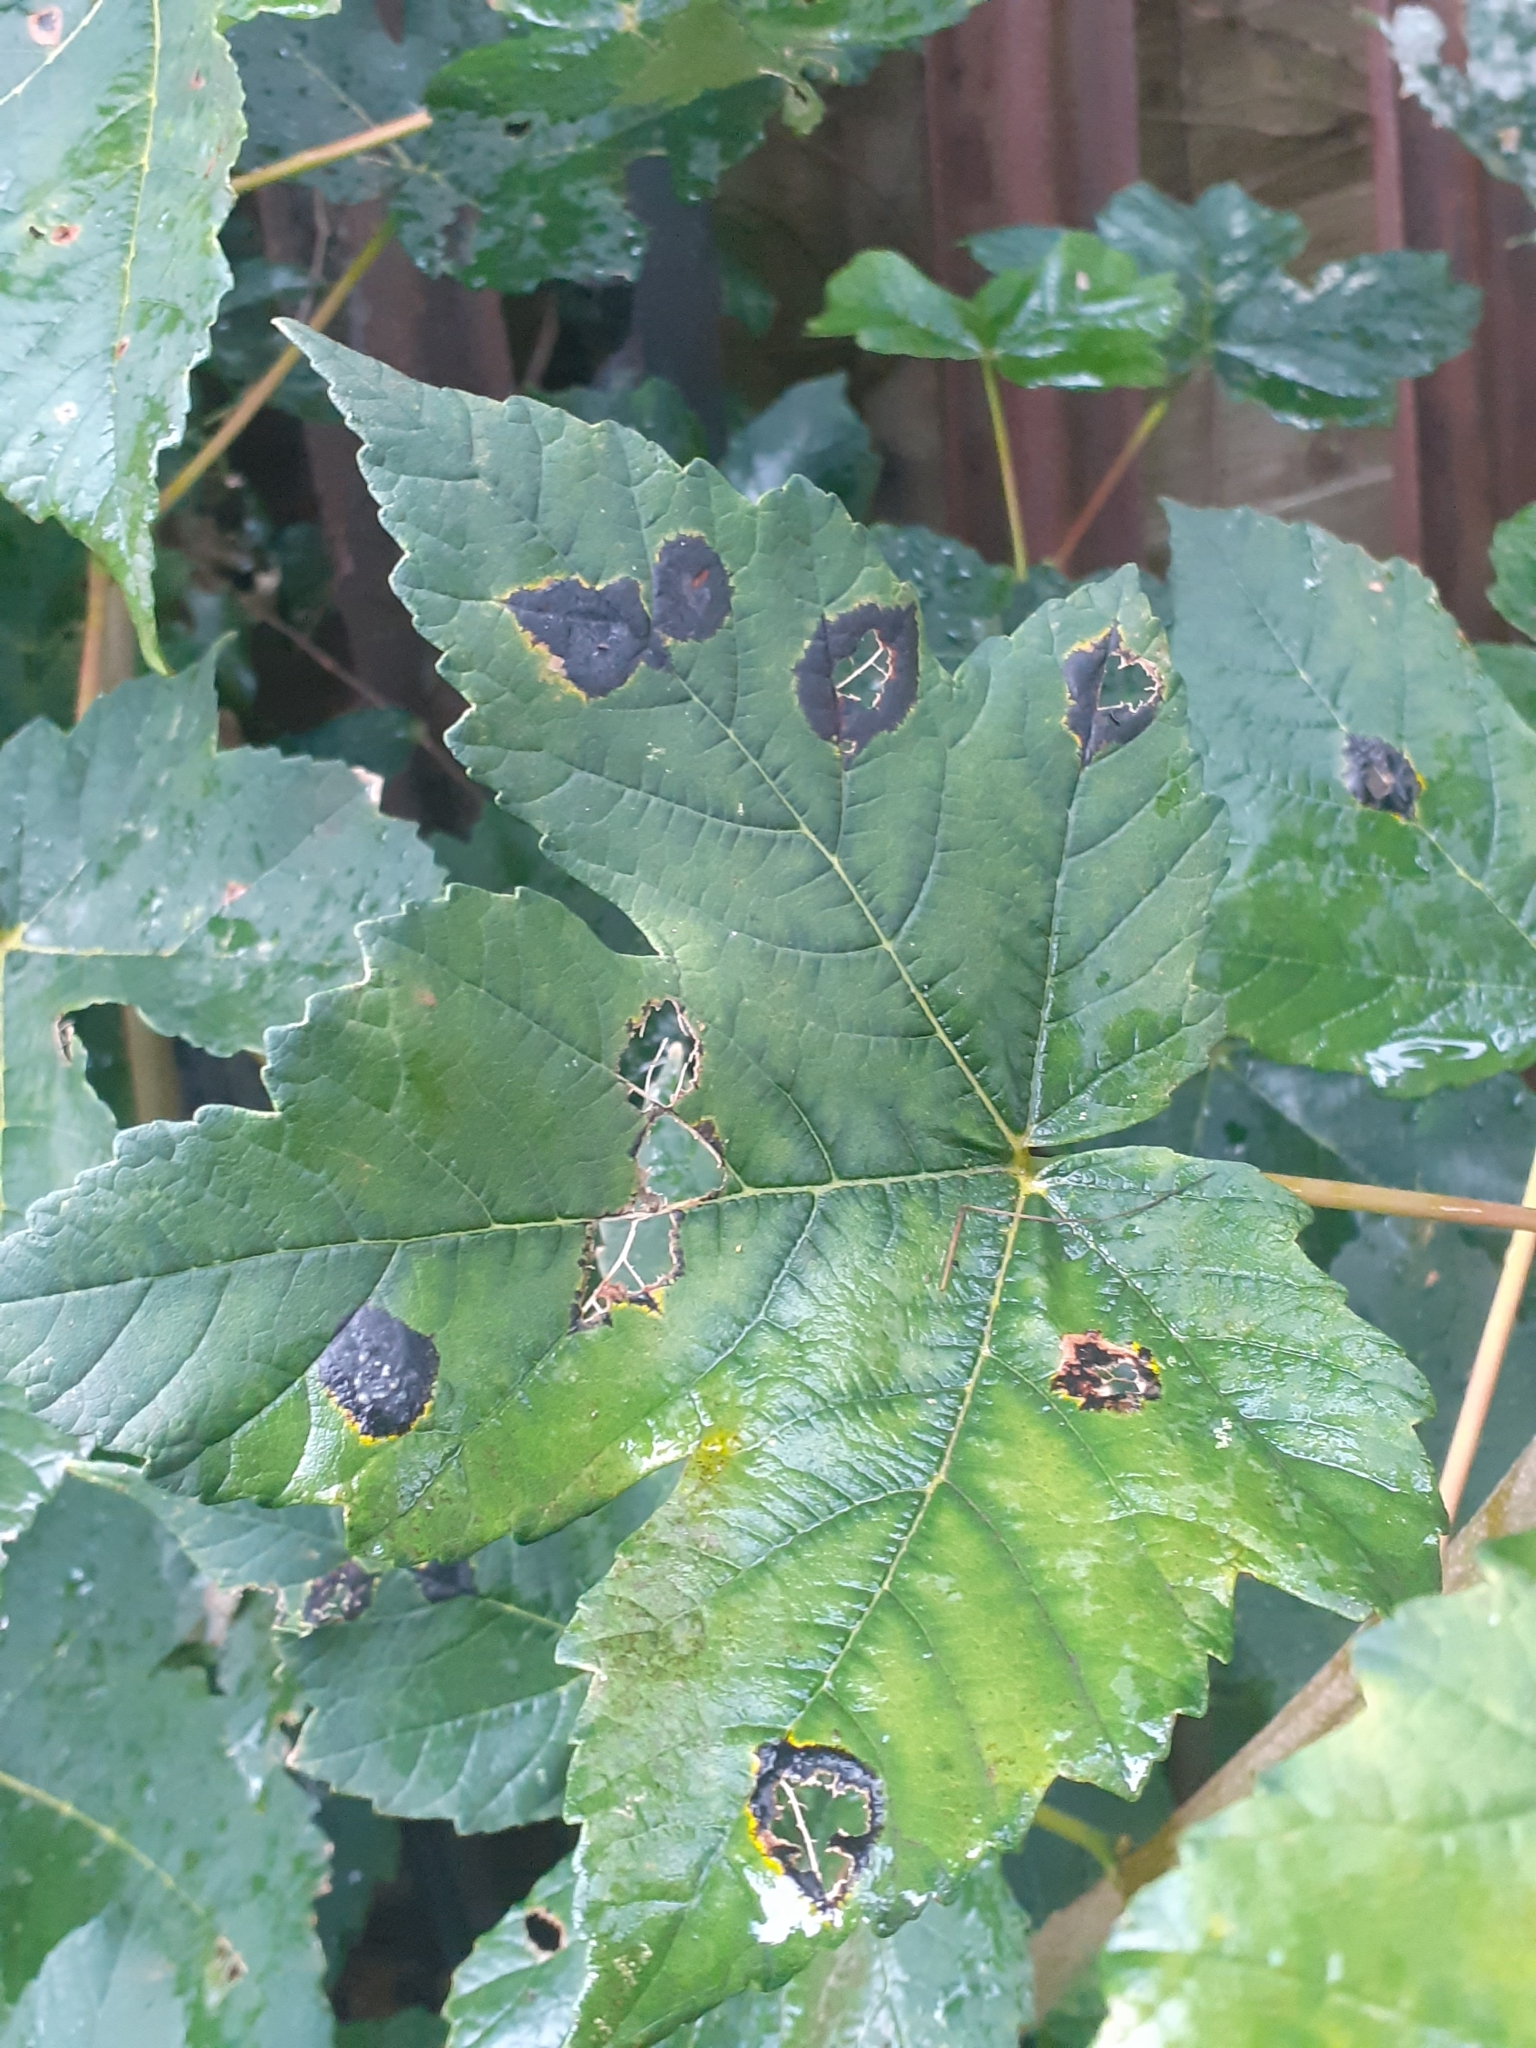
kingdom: Fungi
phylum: Ascomycota
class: Leotiomycetes
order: Rhytismatales
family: Rhytismataceae
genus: Rhytisma
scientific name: Rhytisma acerinum
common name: European tar spot
